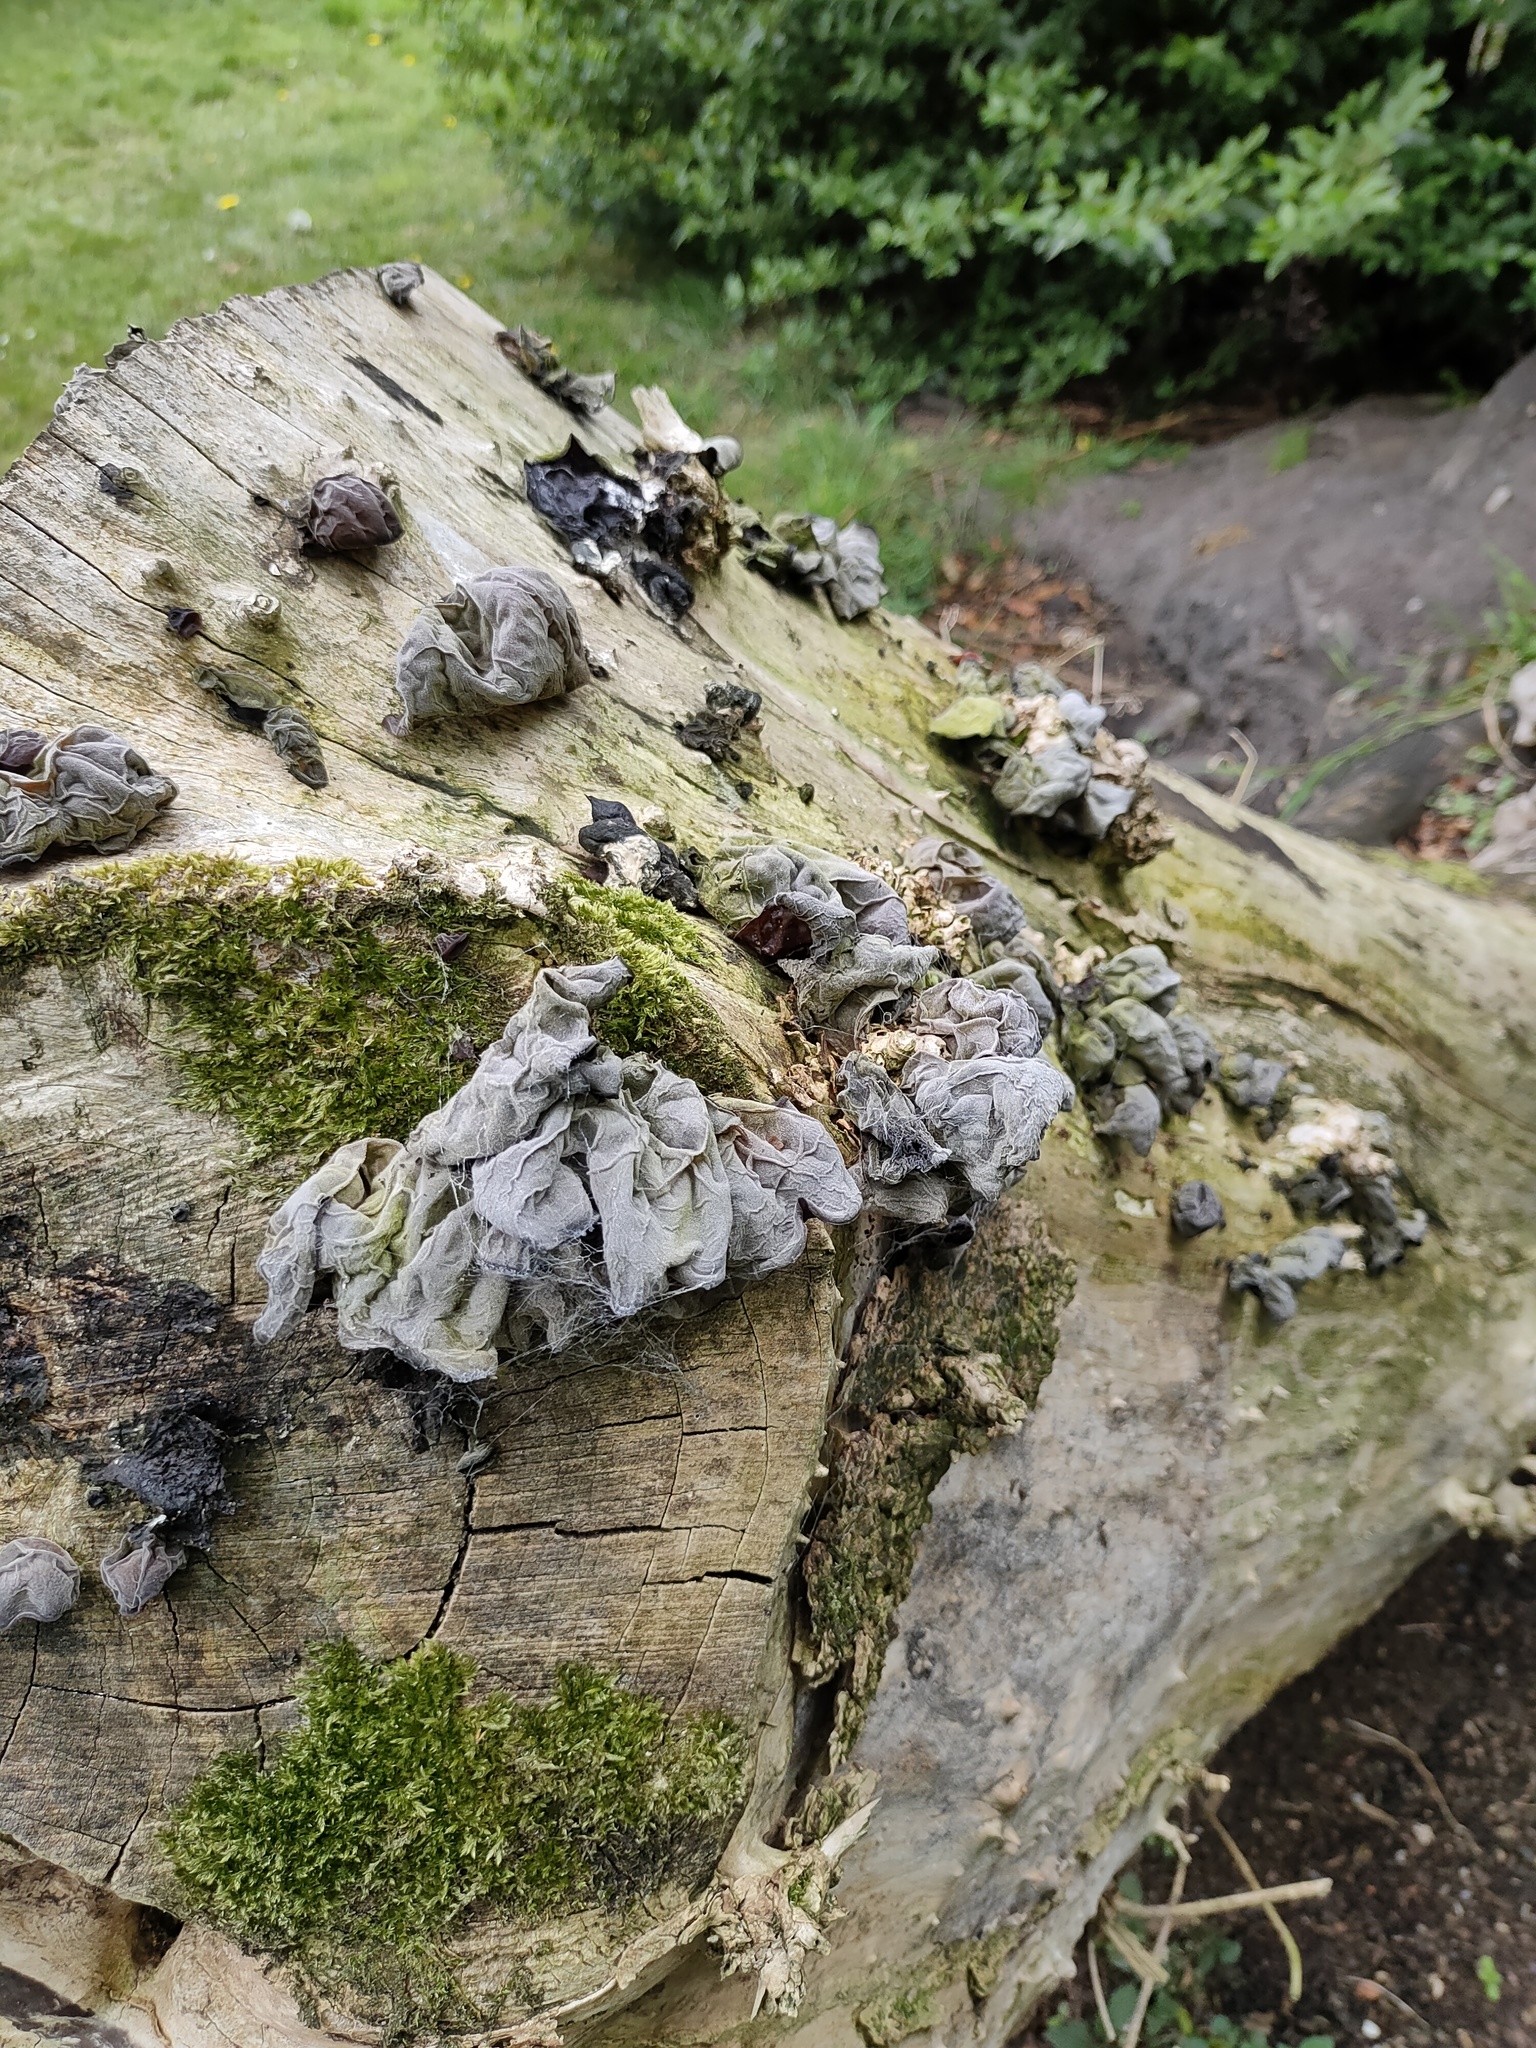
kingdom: Fungi
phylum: Basidiomycota
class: Agaricomycetes
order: Auriculariales
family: Auriculariaceae
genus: Auricularia
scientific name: Auricularia auricula-judae
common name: Jelly ear
